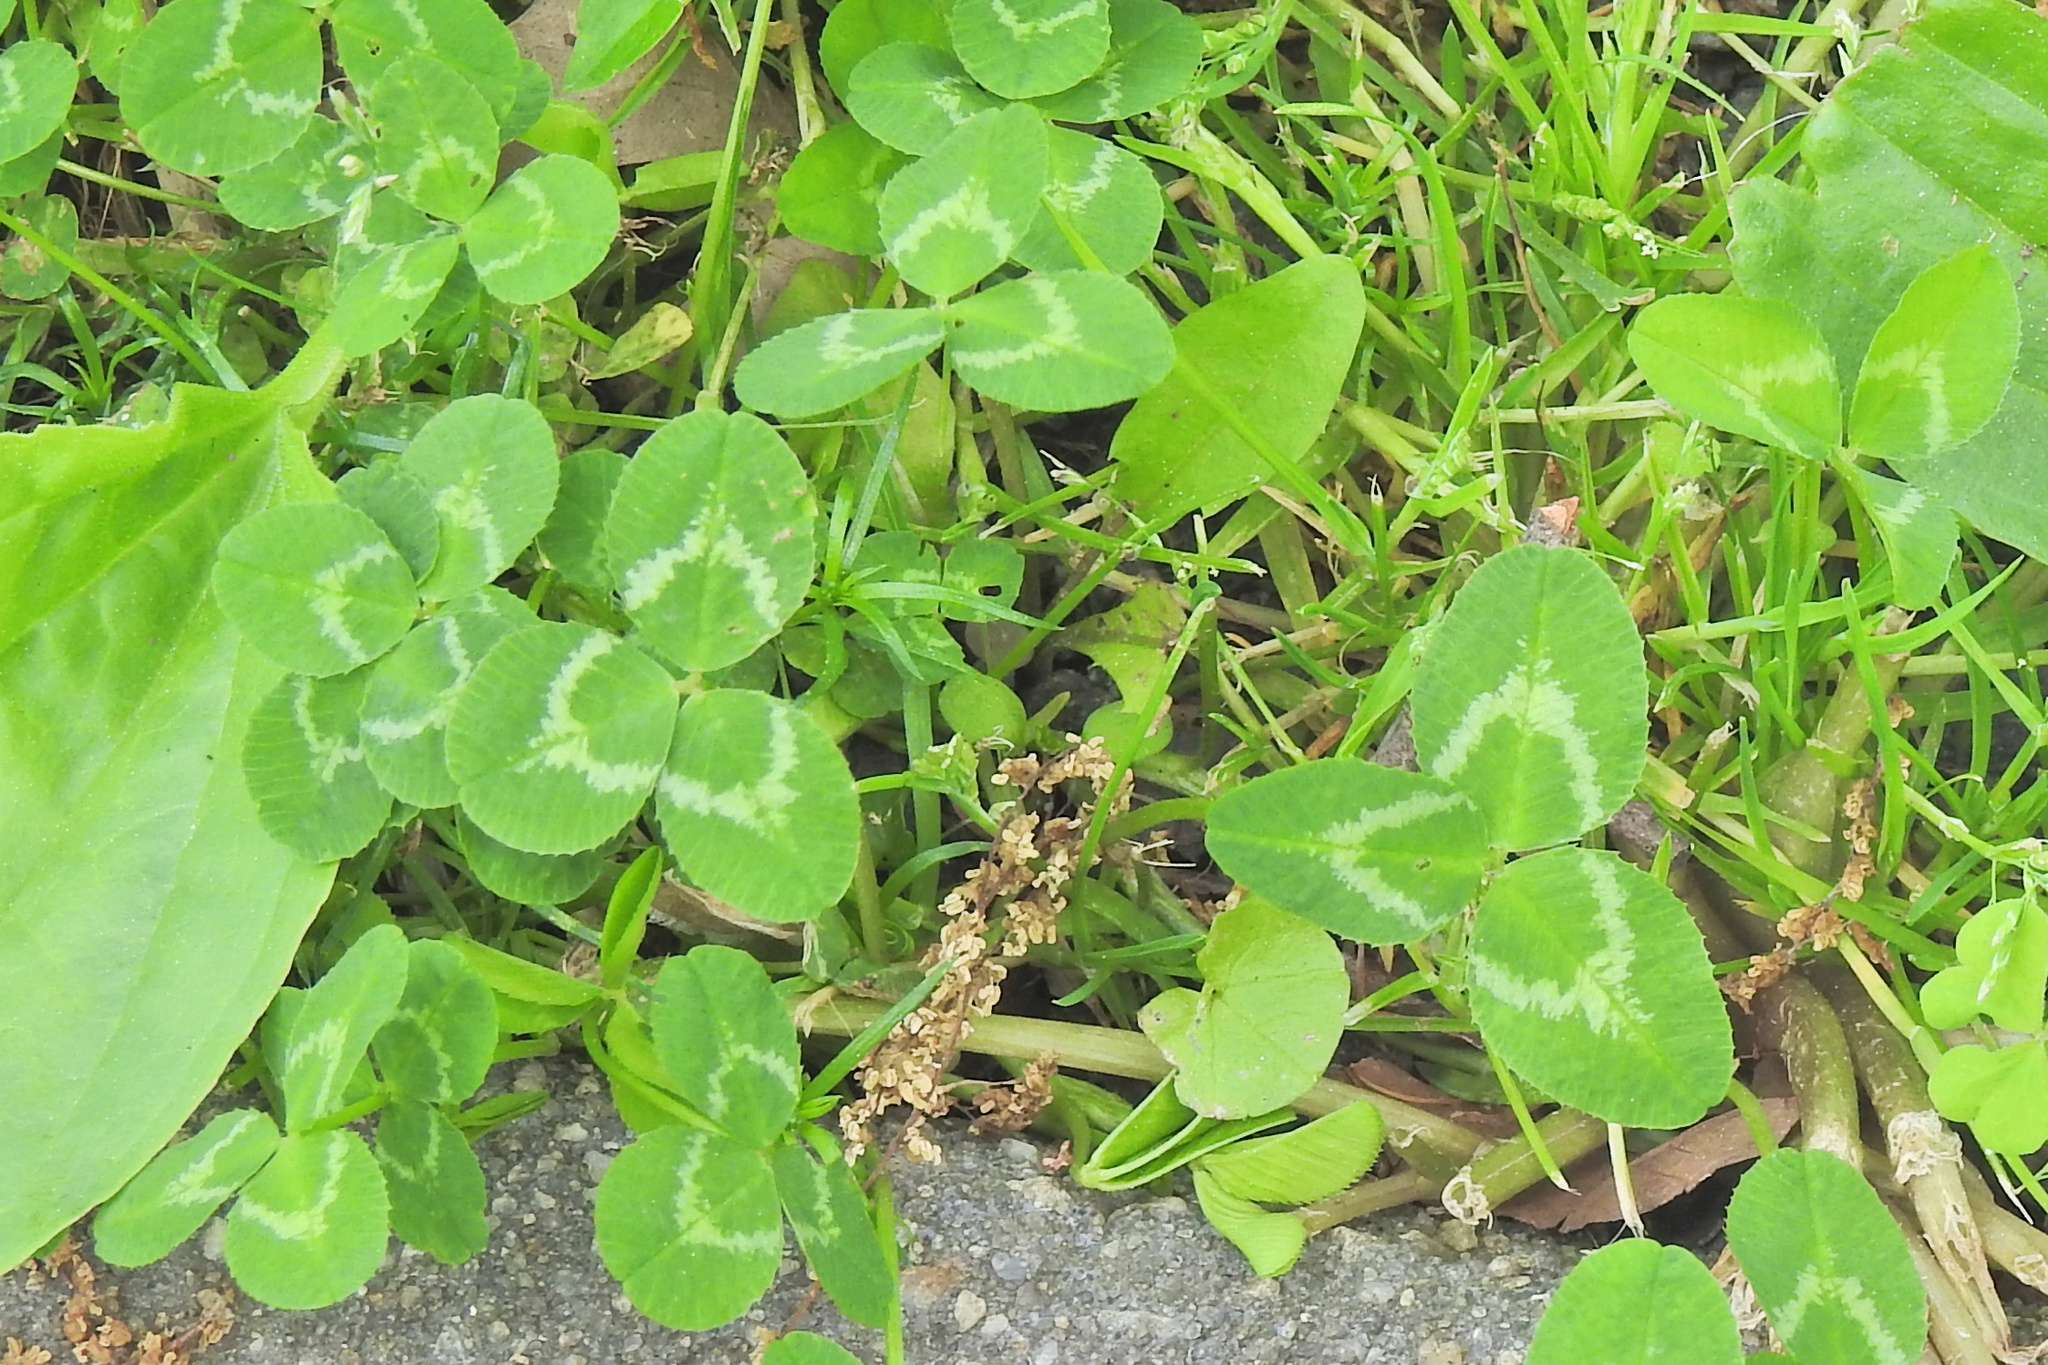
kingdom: Plantae
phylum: Tracheophyta
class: Magnoliopsida
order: Fabales
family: Fabaceae
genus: Trifolium
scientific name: Trifolium repens
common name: White clover
